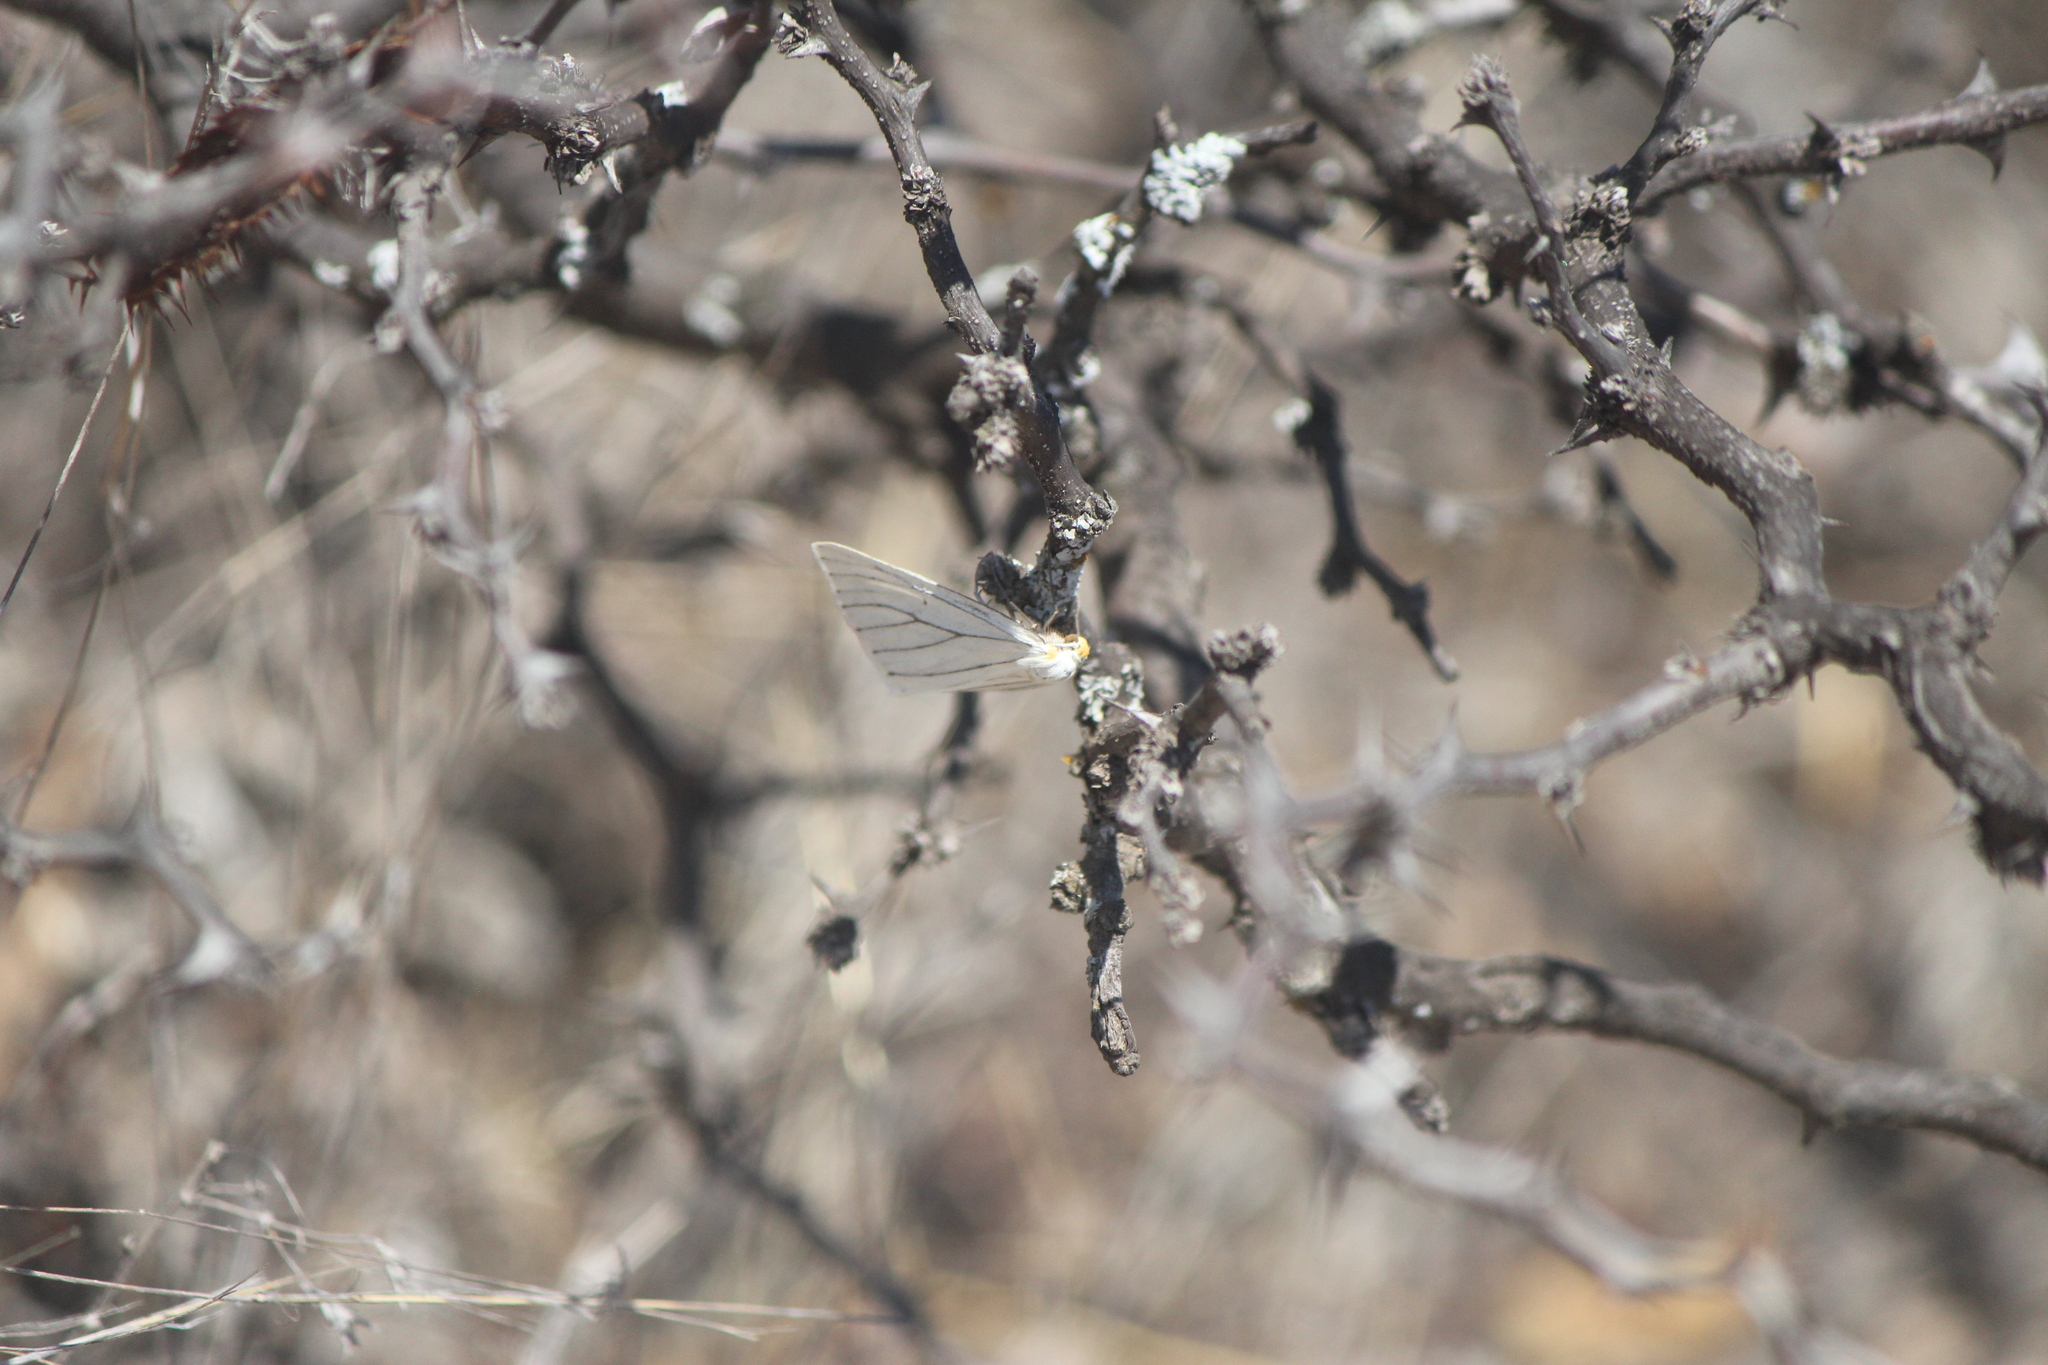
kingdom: Animalia
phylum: Arthropoda
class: Insecta
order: Lepidoptera
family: Geometridae
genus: Neuromelia
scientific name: Neuromelia selectata
